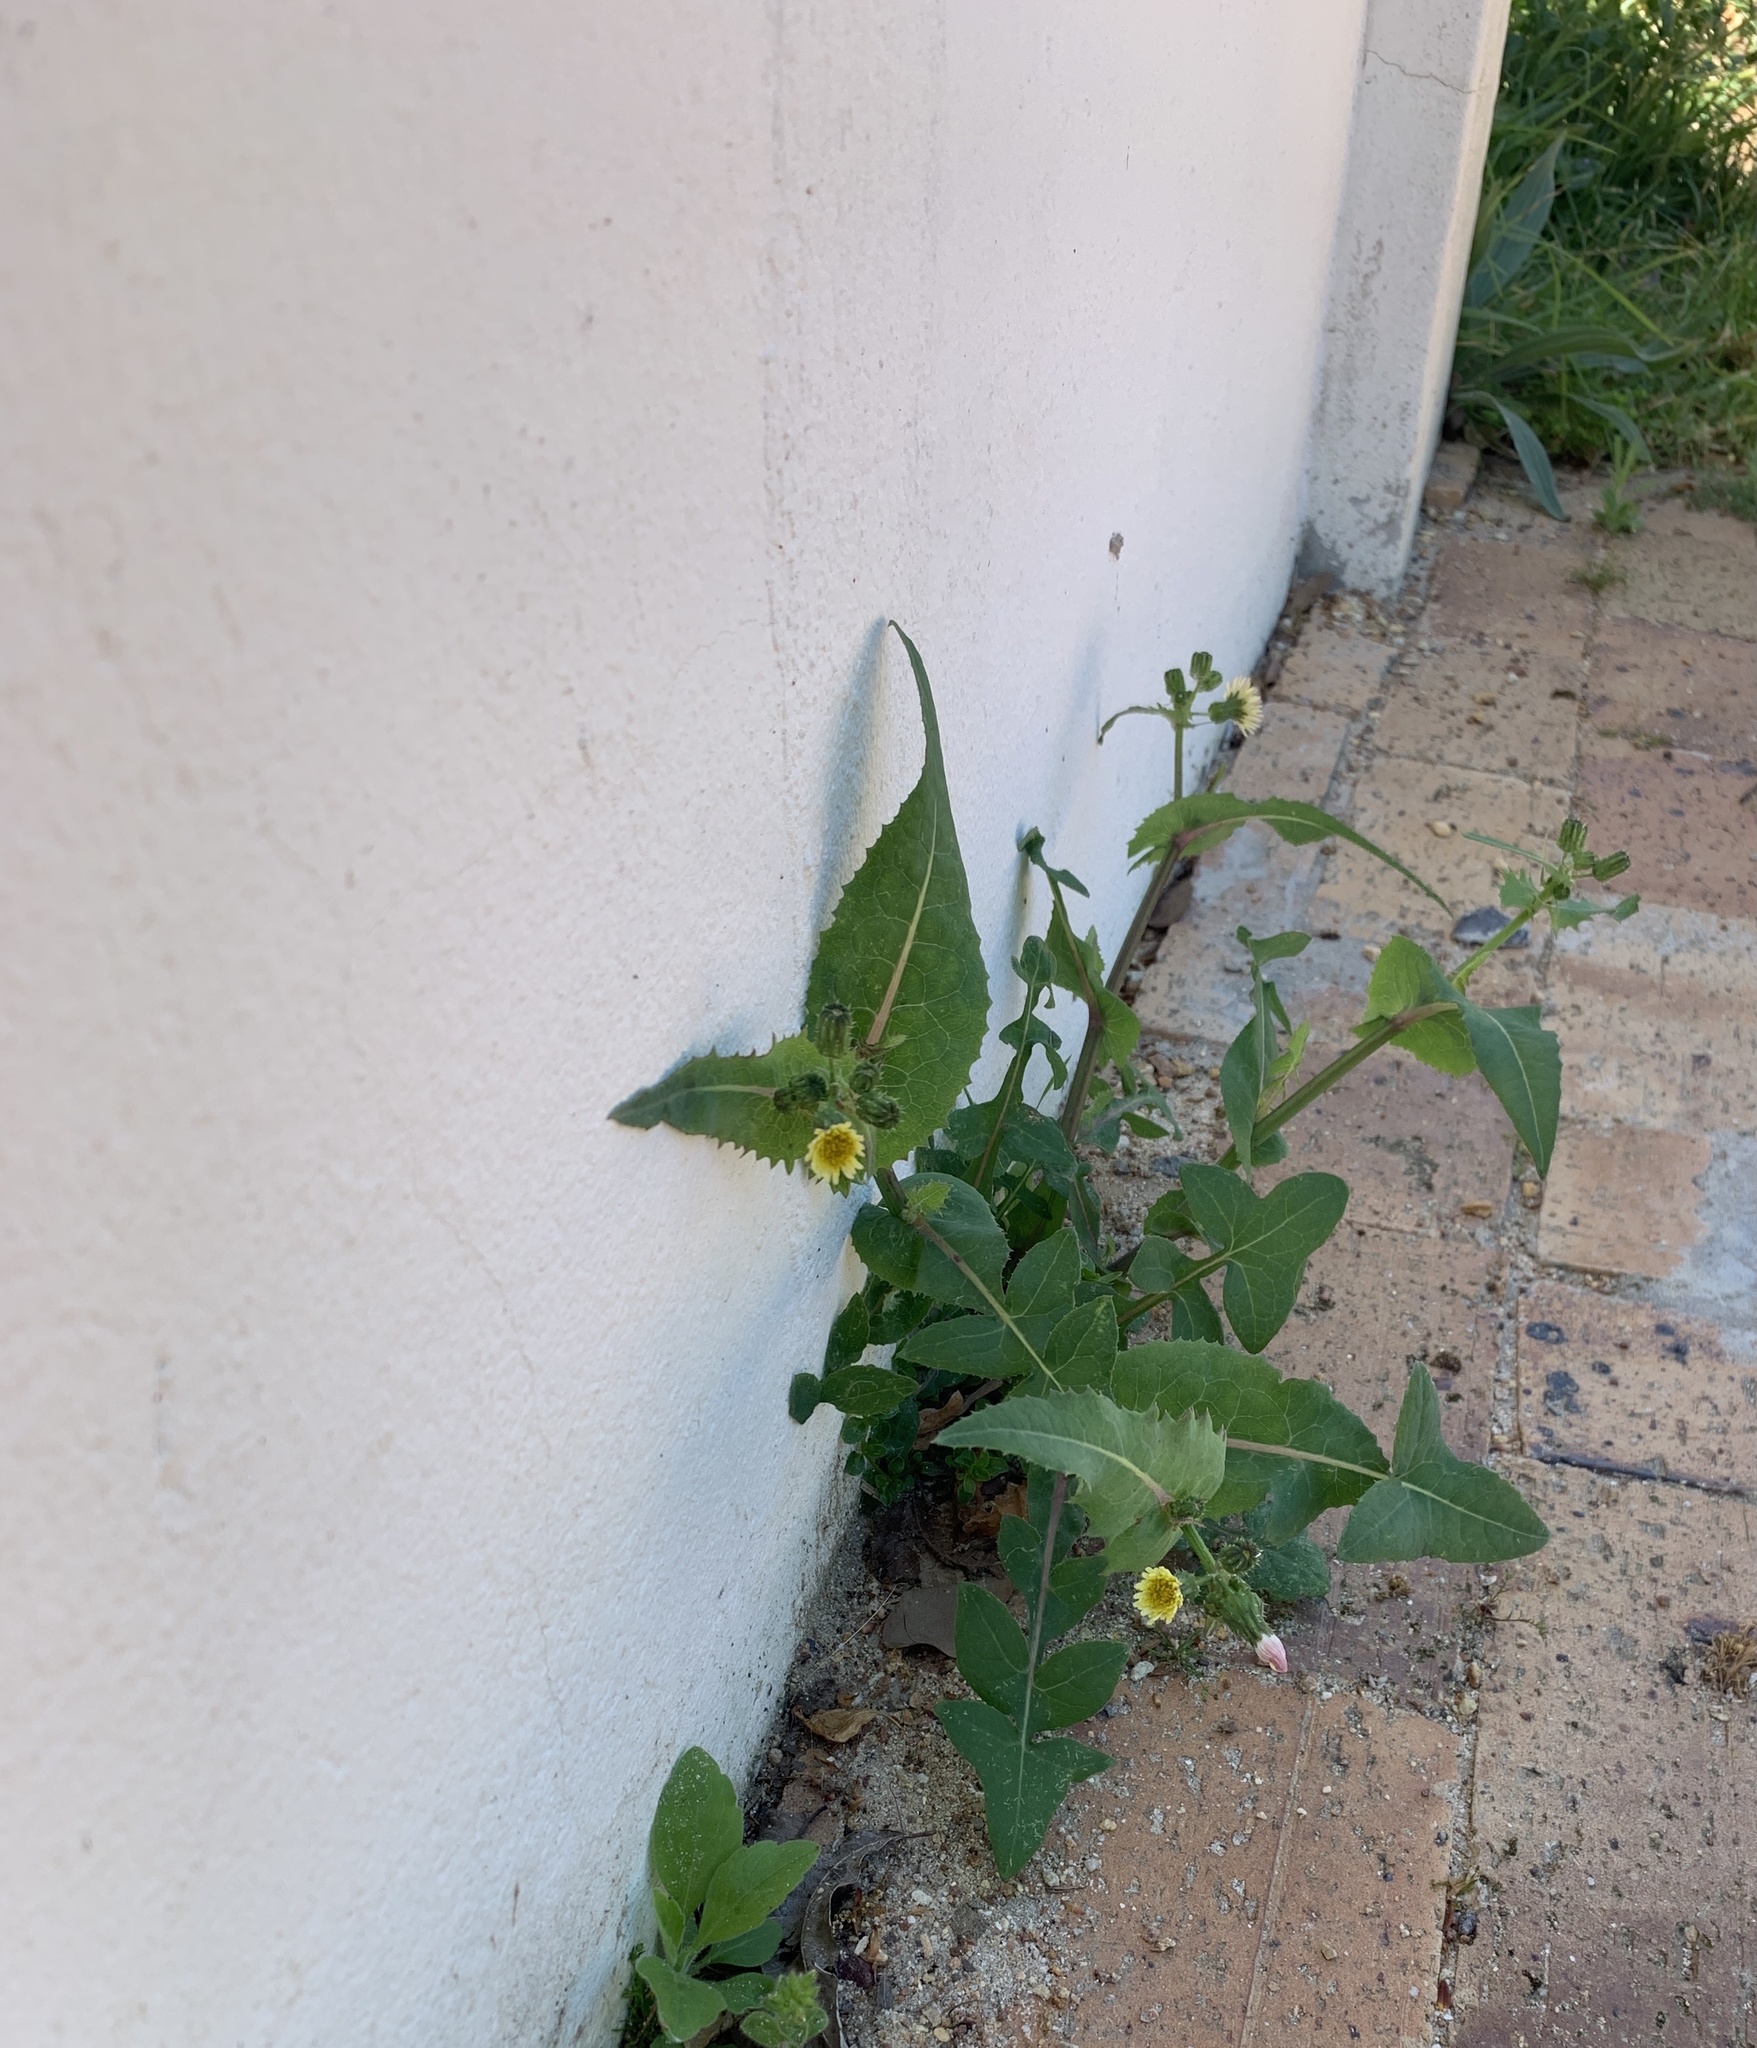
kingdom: Plantae
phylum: Tracheophyta
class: Magnoliopsida
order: Asterales
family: Asteraceae
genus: Sonchus
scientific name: Sonchus oleraceus
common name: Common sowthistle
